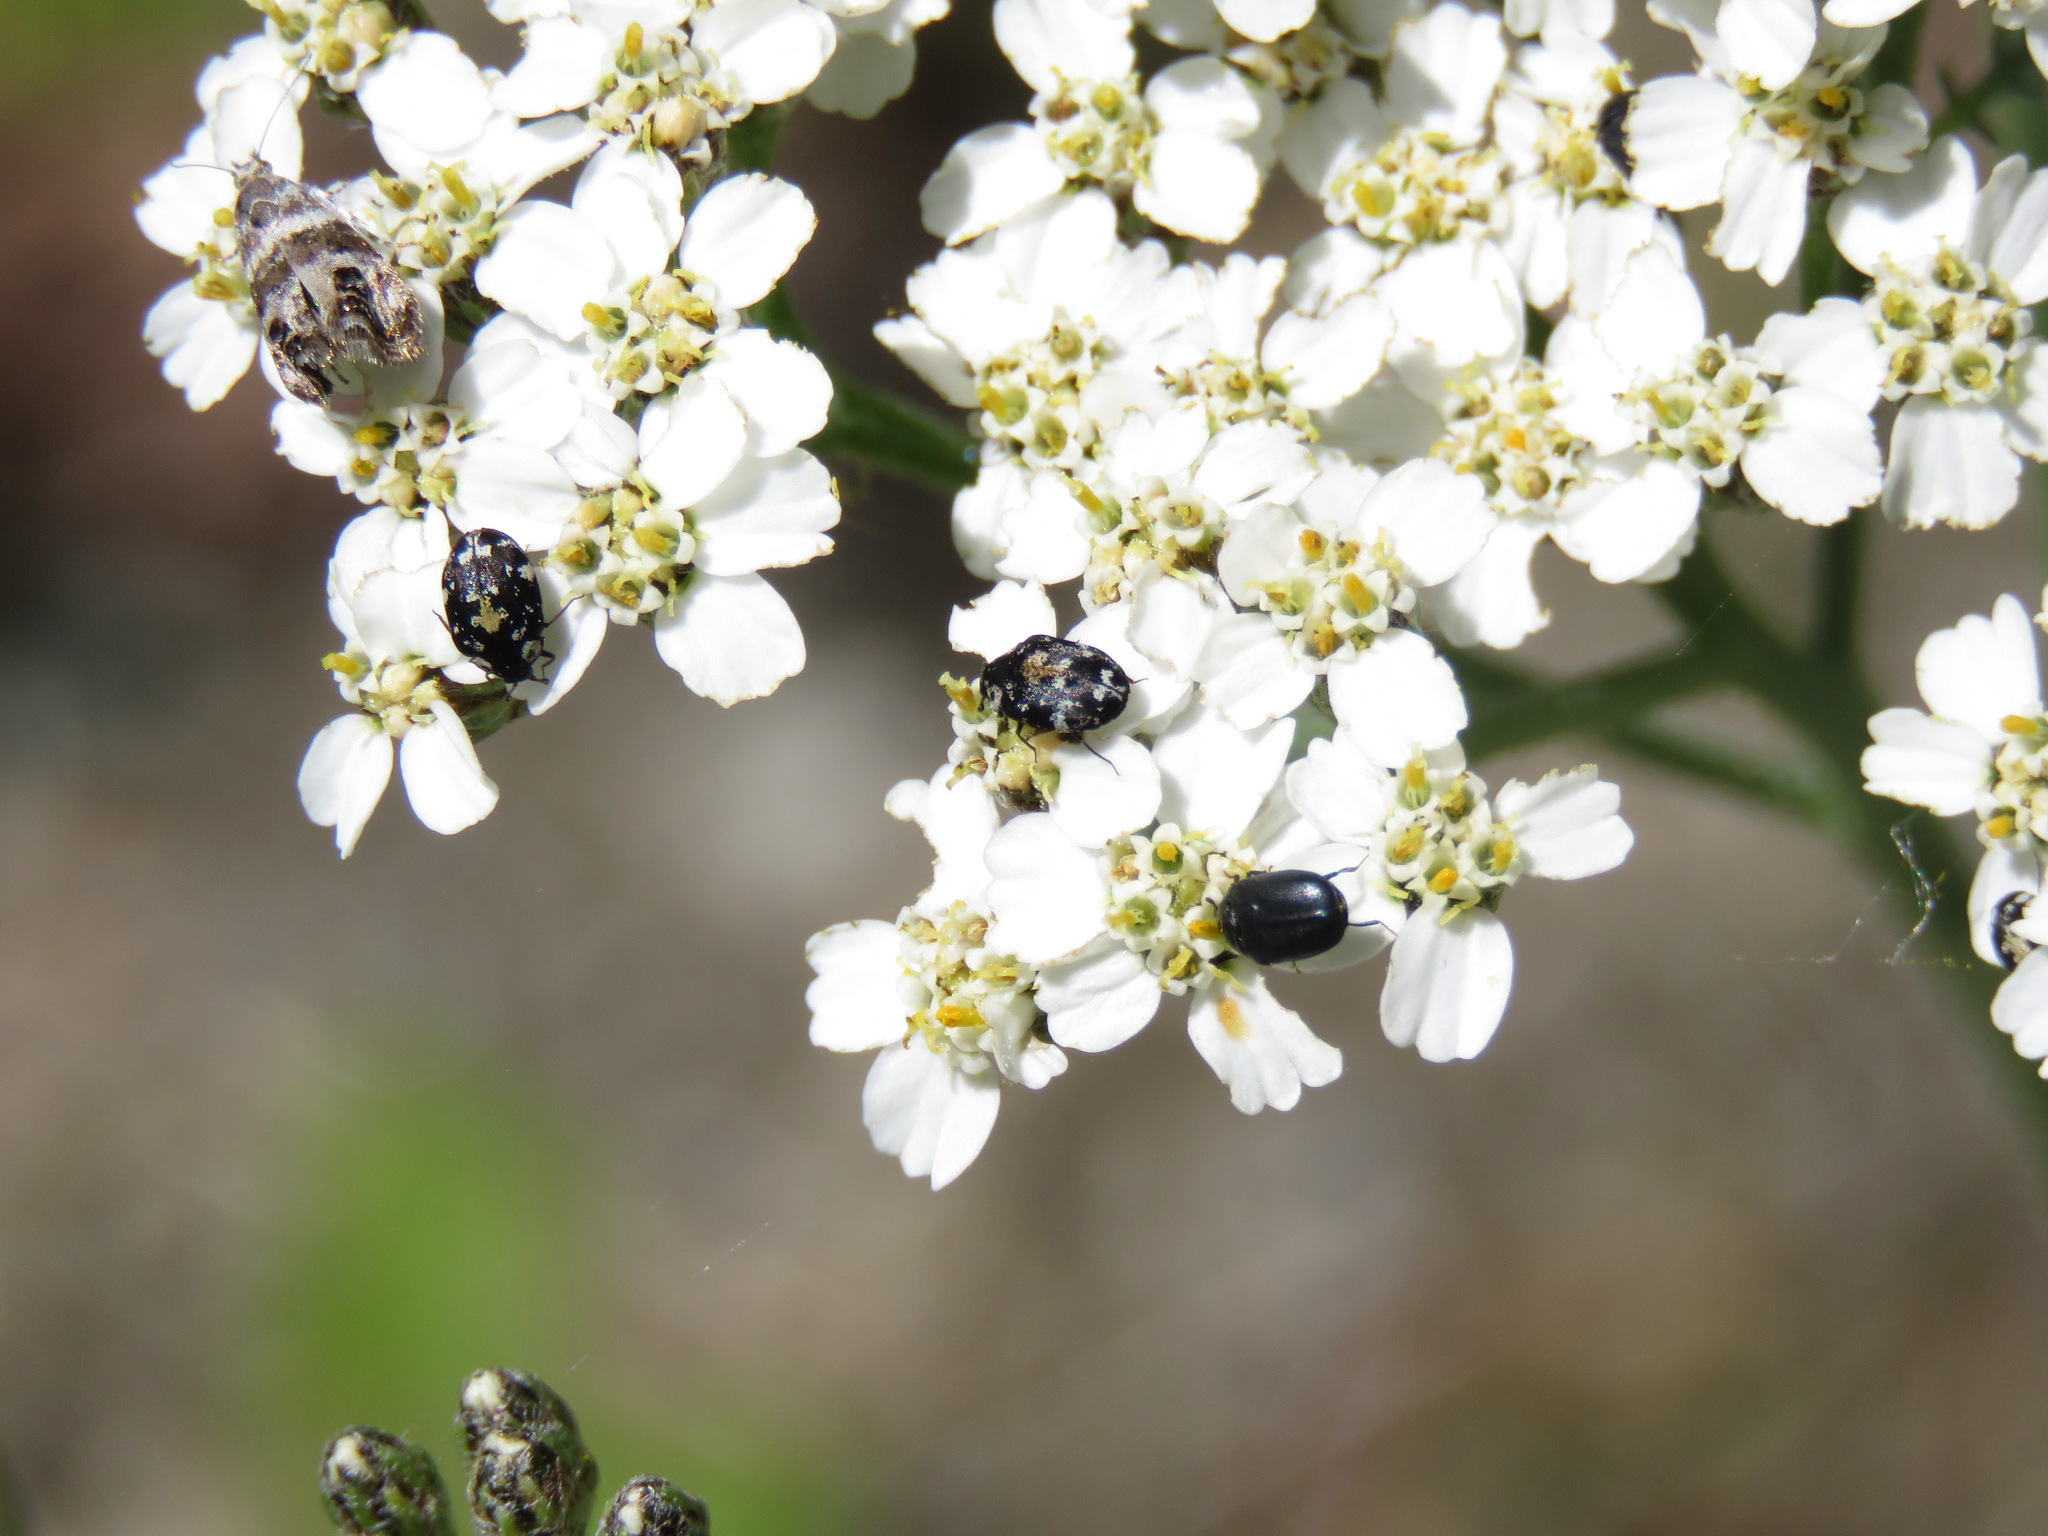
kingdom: Animalia
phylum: Arthropoda
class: Insecta
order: Coleoptera
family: Dermestidae
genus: Anthrenus
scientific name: Anthrenus lepidus
